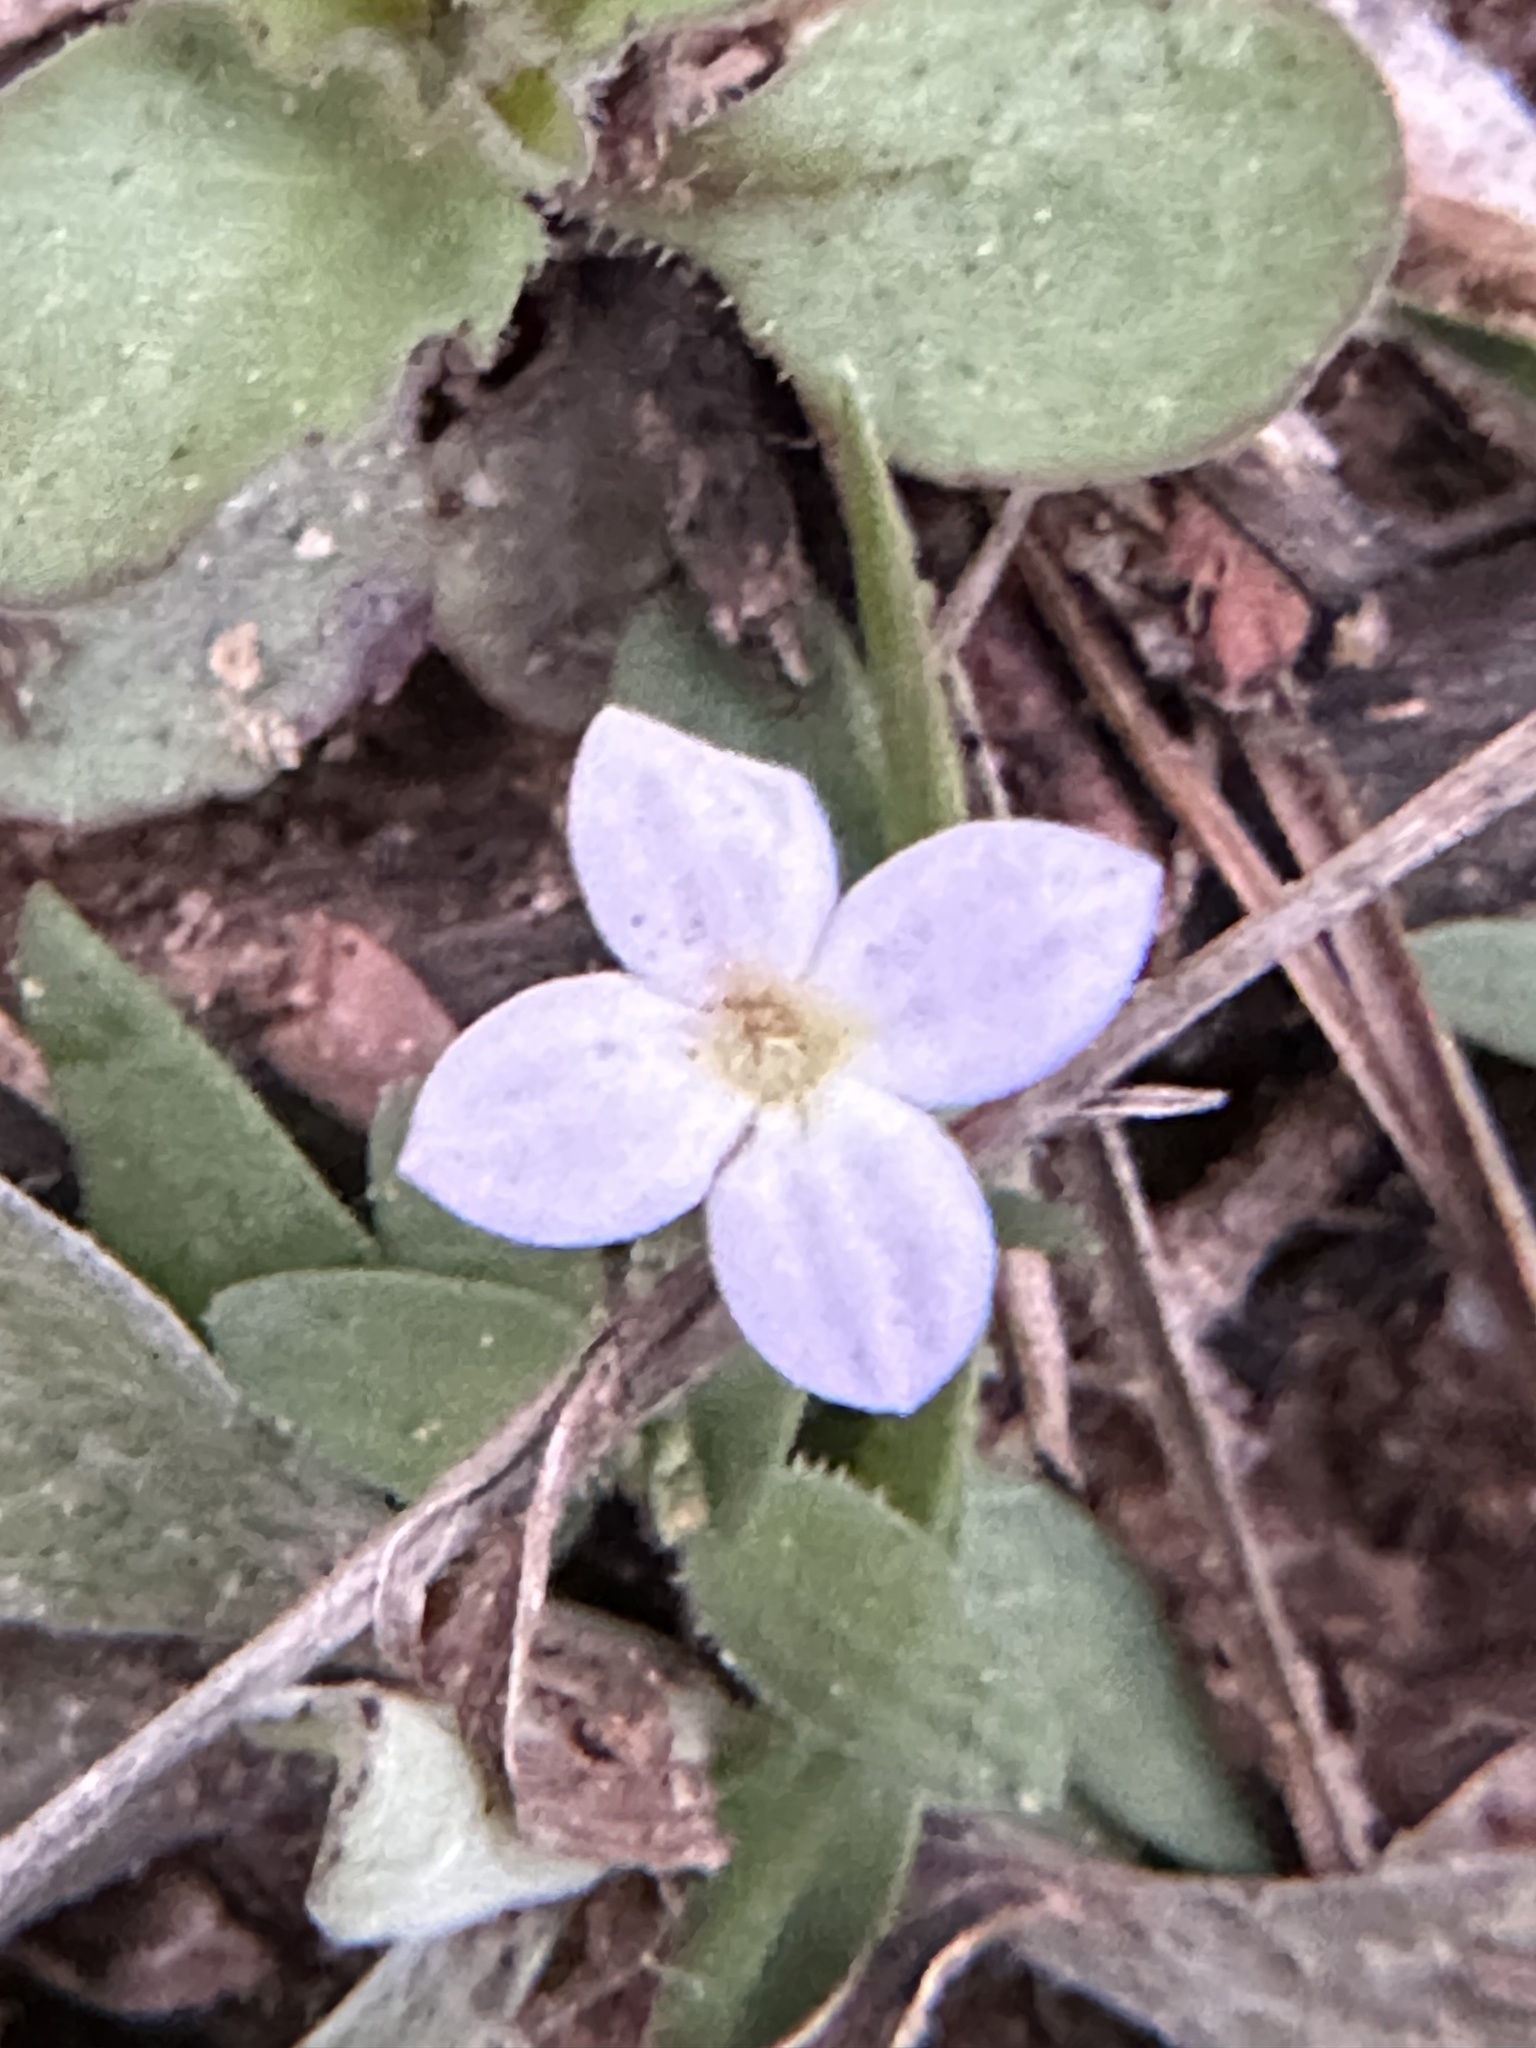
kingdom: Plantae
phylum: Tracheophyta
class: Magnoliopsida
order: Gentianales
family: Rubiaceae
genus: Houstonia
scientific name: Houstonia rosea
